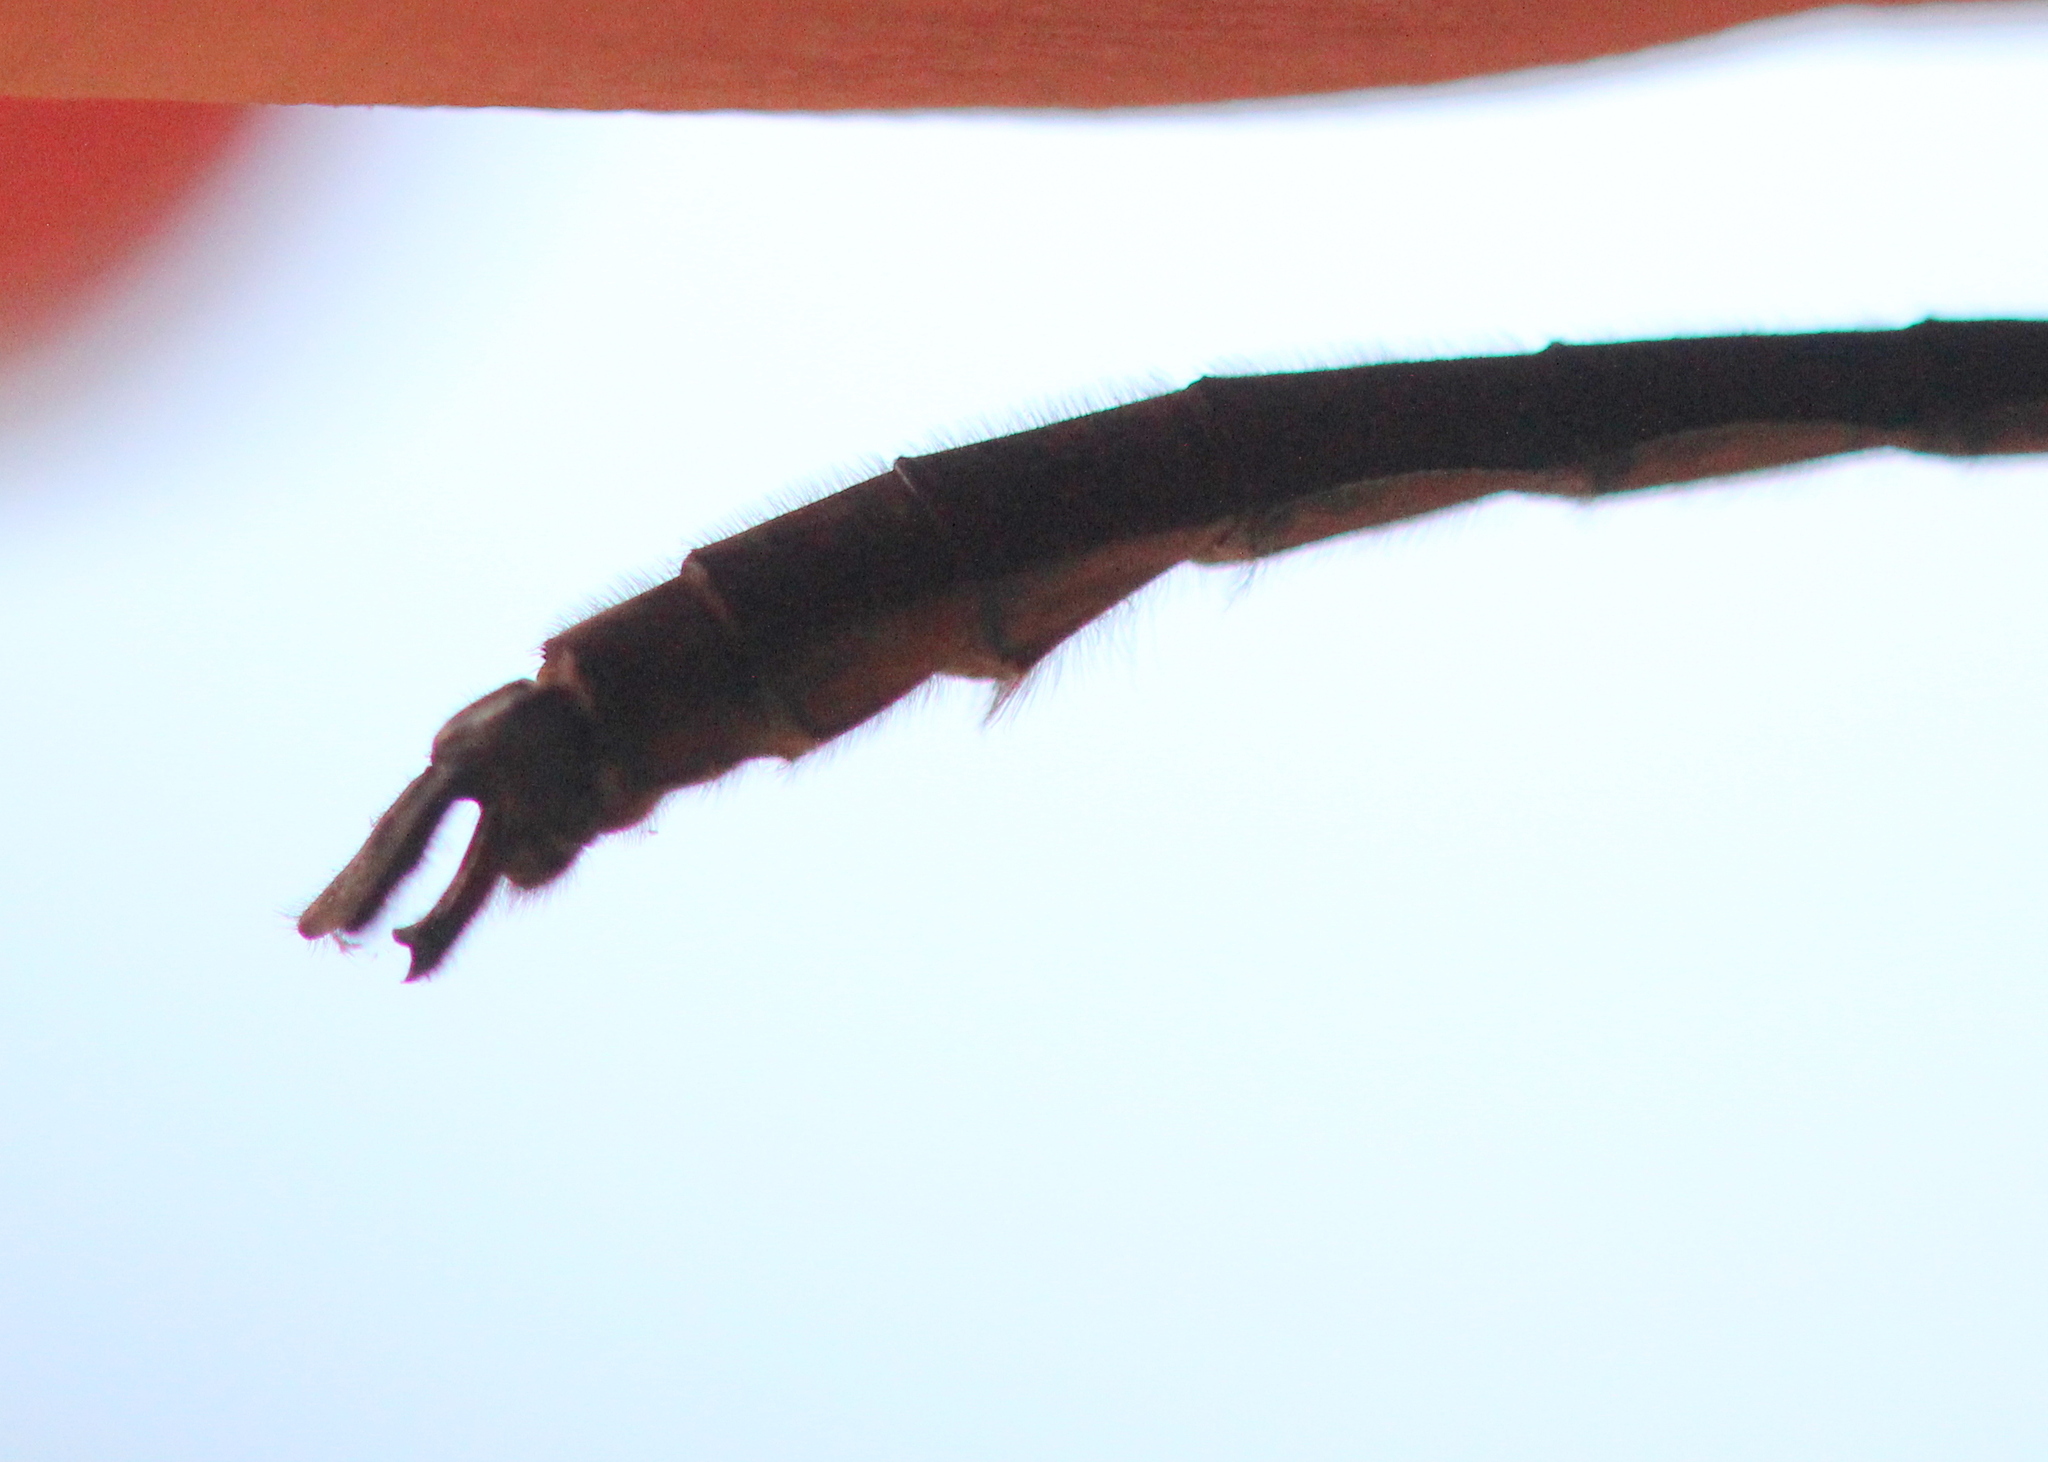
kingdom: Animalia
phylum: Arthropoda
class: Insecta
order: Odonata
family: Corduliidae
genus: Cordulia
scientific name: Cordulia shurtleffii
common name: American emerald
